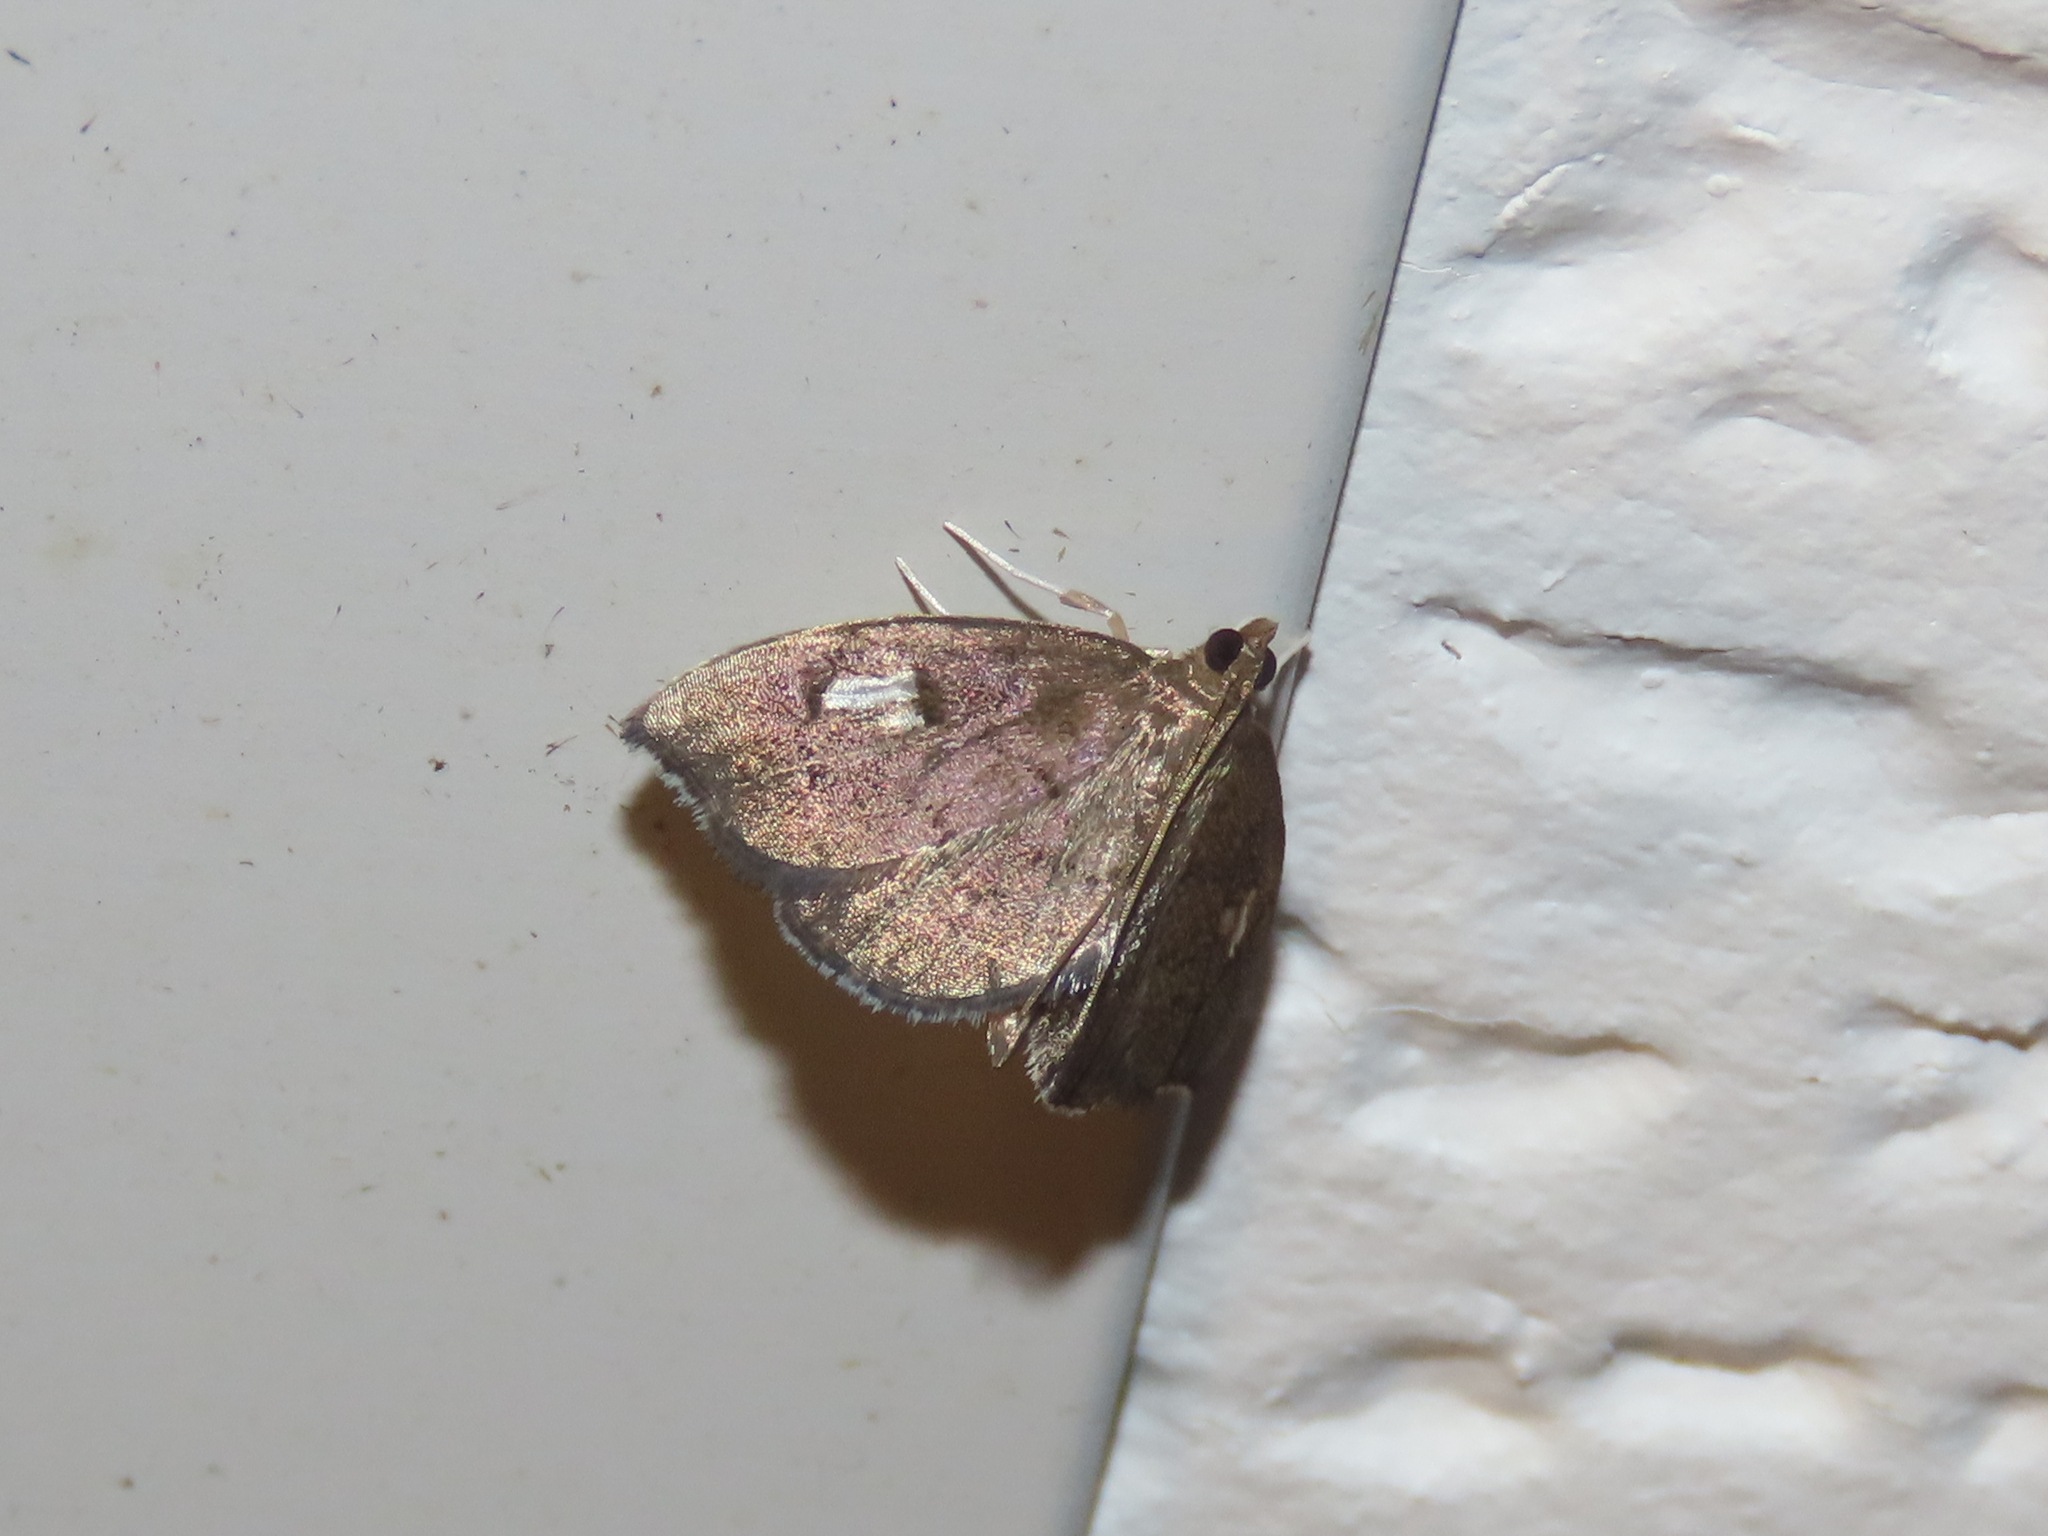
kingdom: Animalia
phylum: Arthropoda
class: Insecta
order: Lepidoptera
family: Crambidae
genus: Perispasta
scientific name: Perispasta caeculalis
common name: Titian peale's moth
